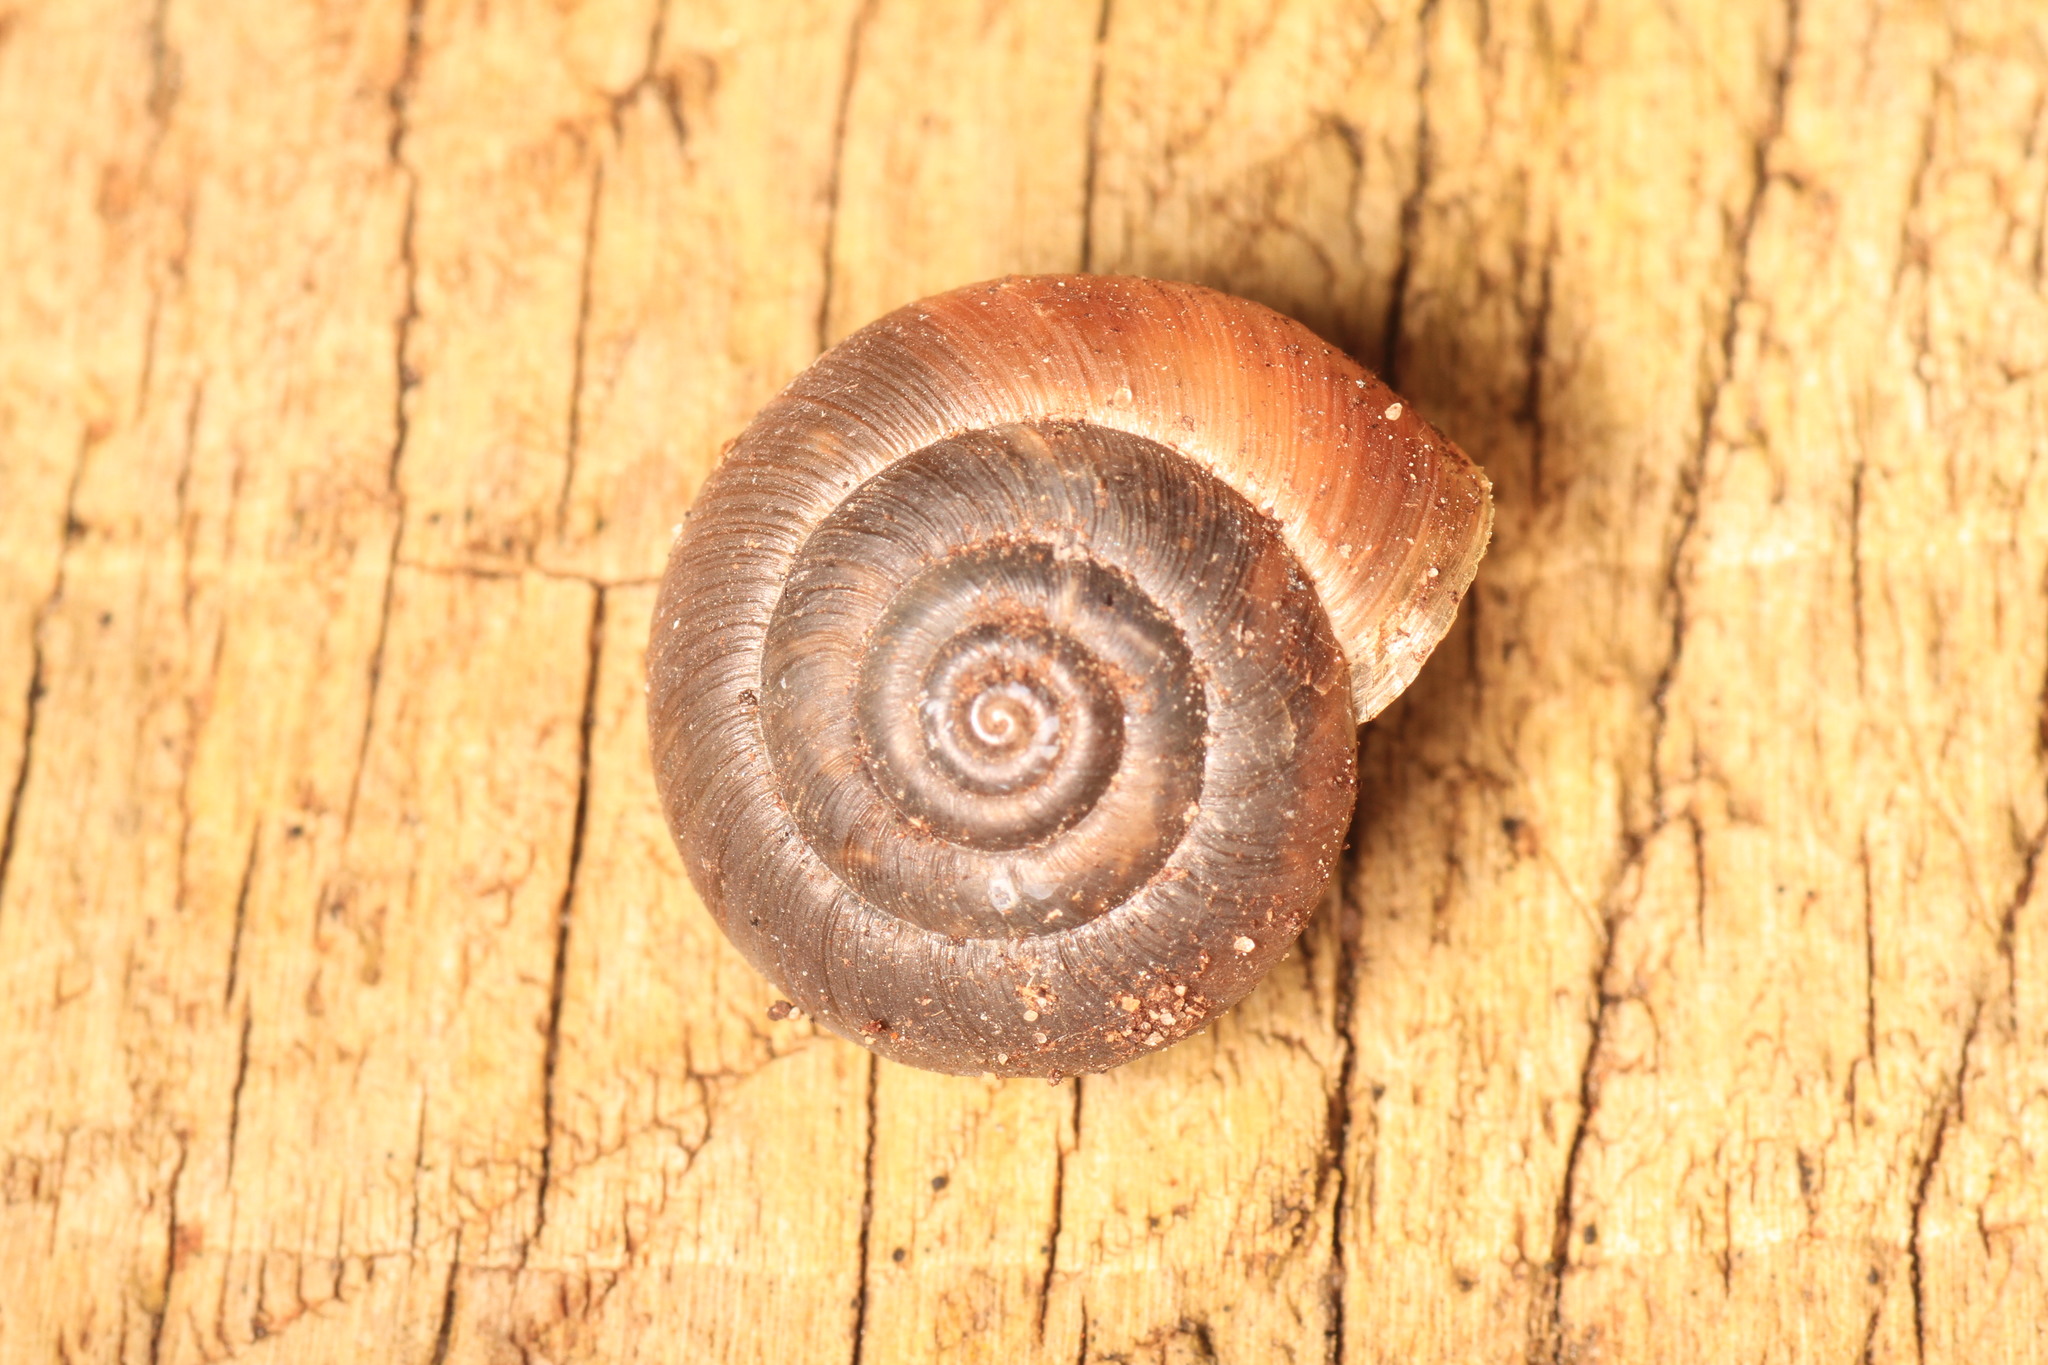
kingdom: Animalia
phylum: Mollusca
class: Gastropoda
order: Stylommatophora
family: Hygromiidae
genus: Trochulus
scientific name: Trochulus striolatus
